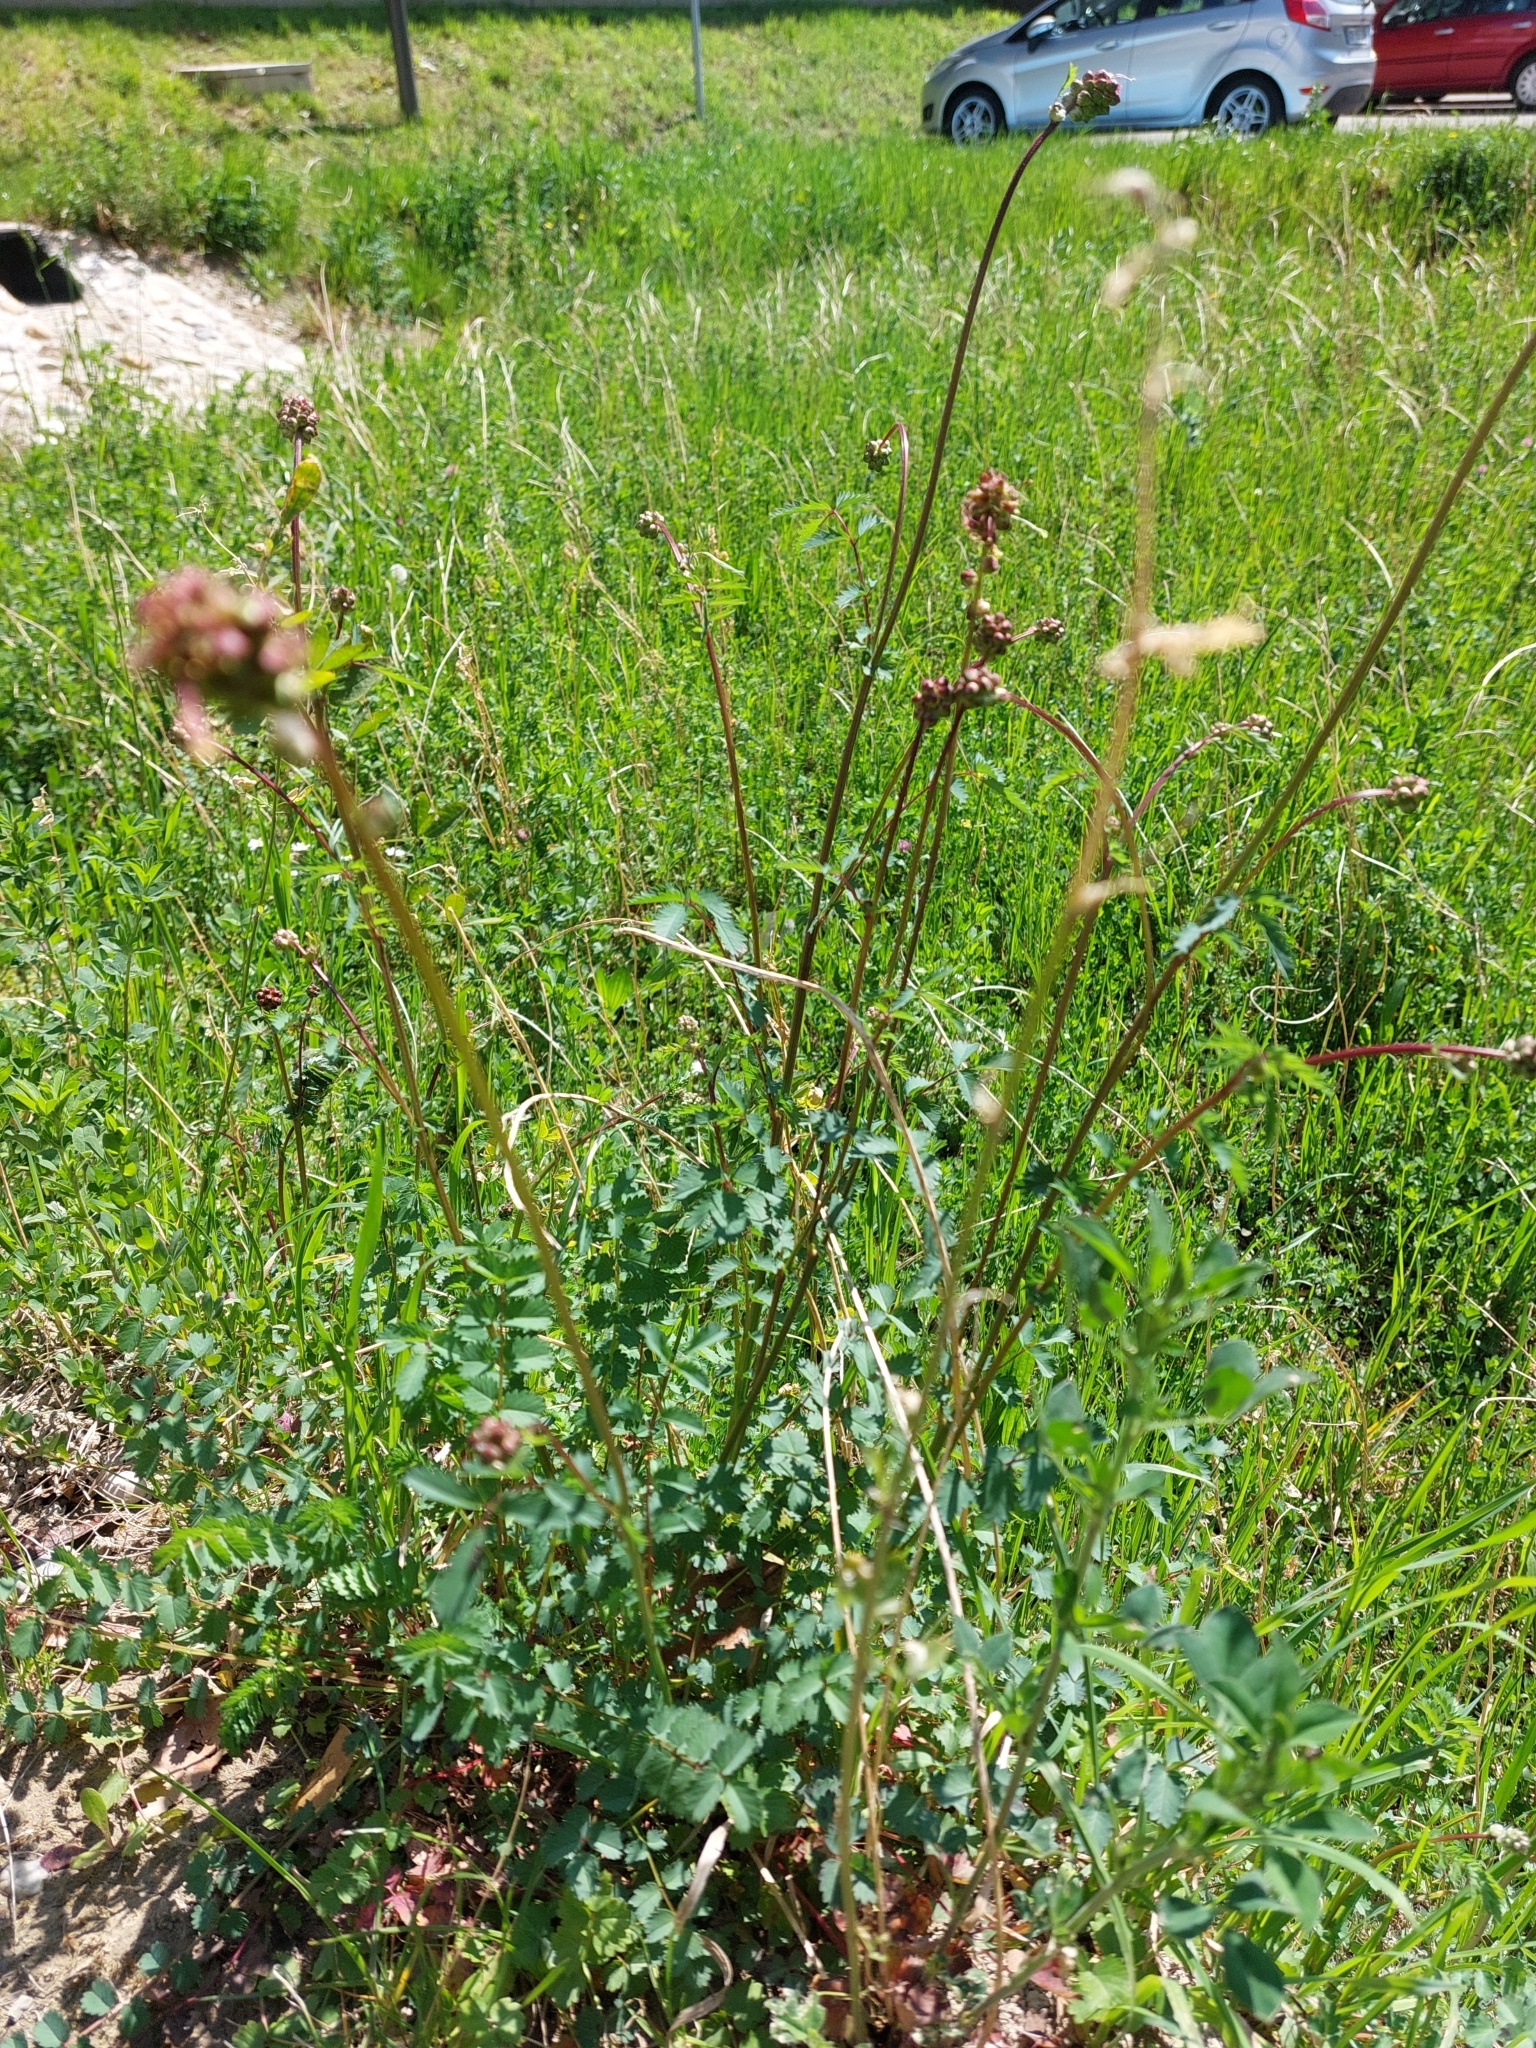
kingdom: Plantae
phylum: Tracheophyta
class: Magnoliopsida
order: Rosales
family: Rosaceae
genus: Poterium
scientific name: Poterium sanguisorba
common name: Salad burnet
